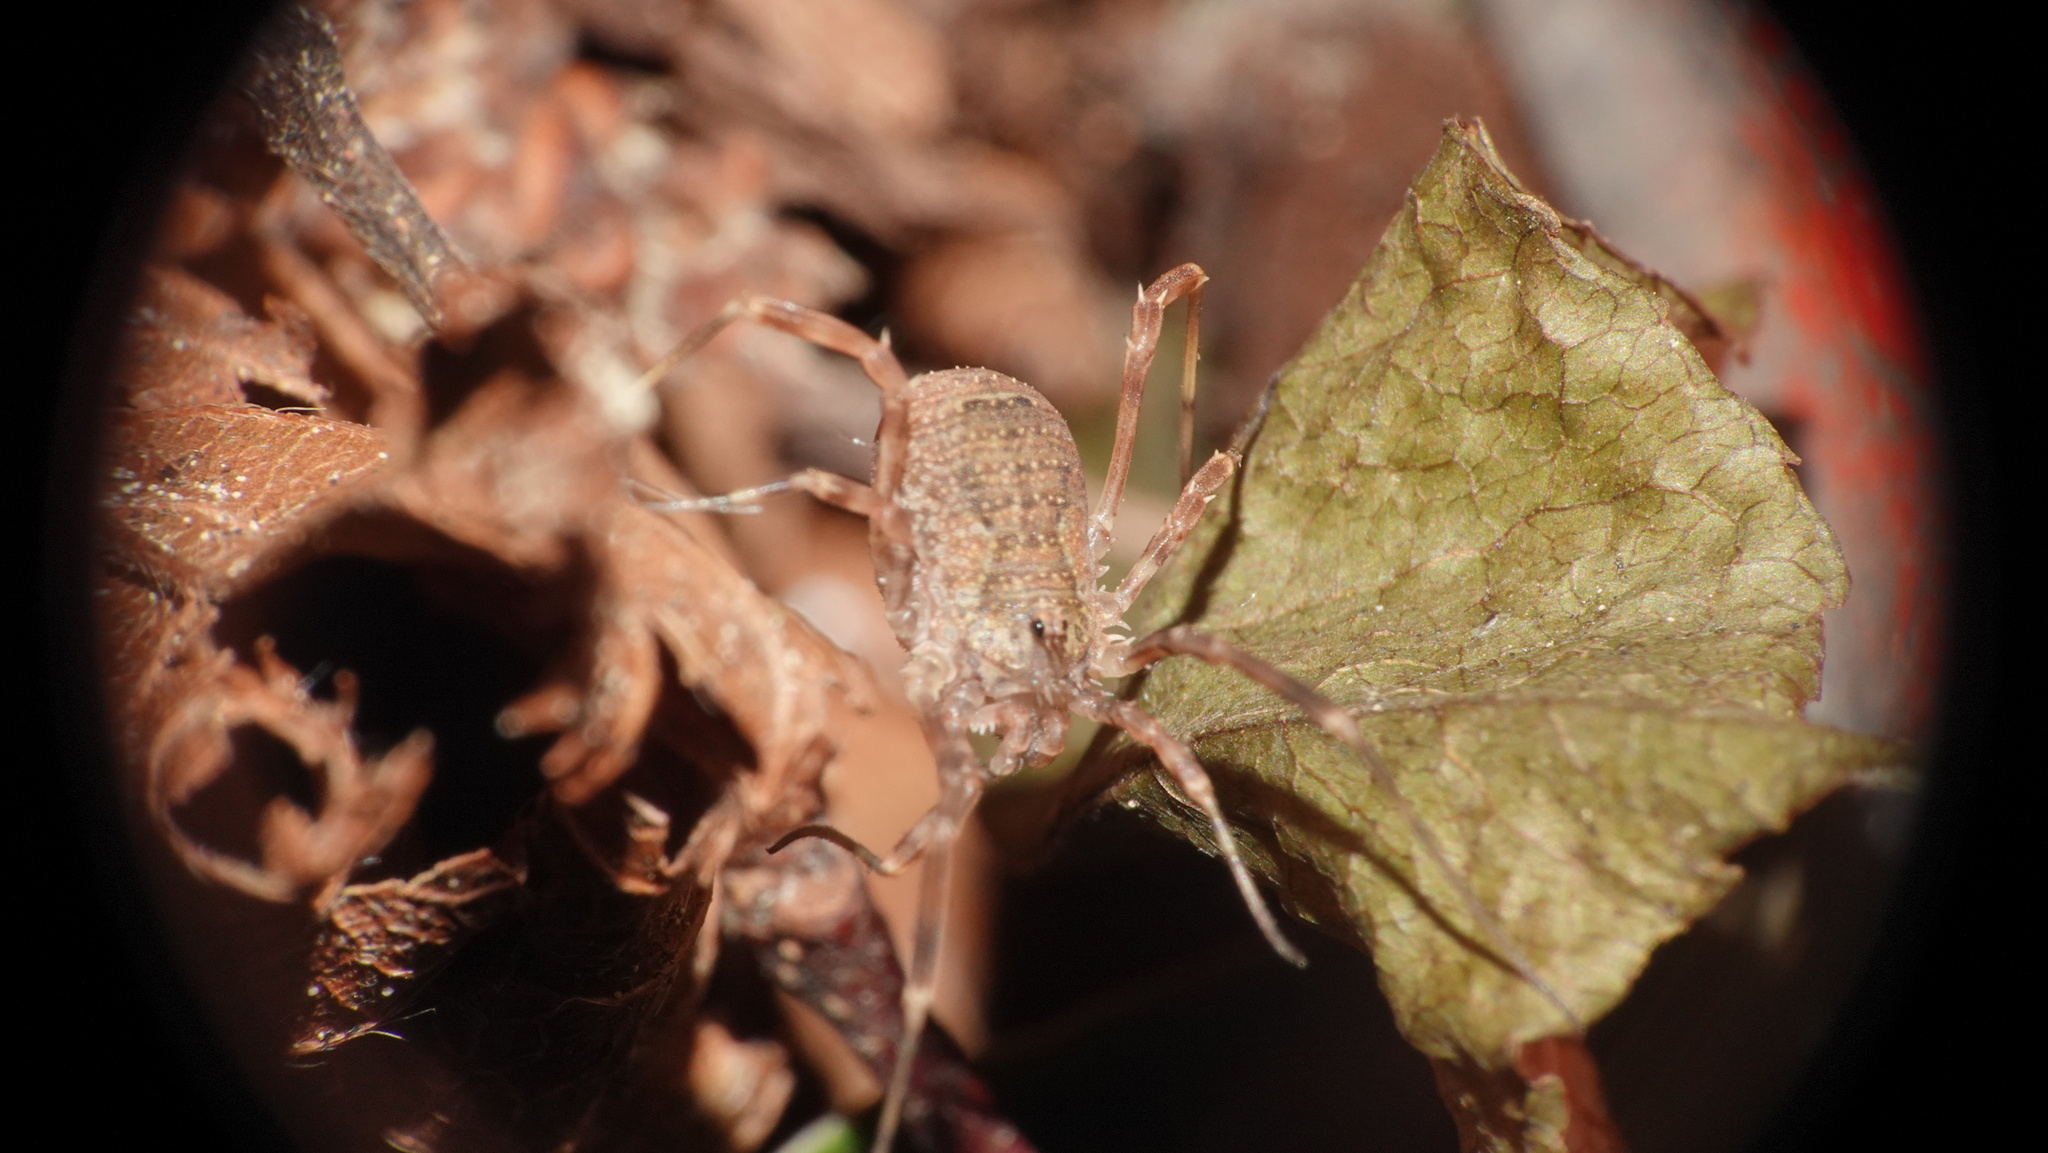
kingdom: Animalia
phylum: Arthropoda
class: Arachnida
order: Opiliones
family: Phalangiidae
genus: Odiellus
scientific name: Odiellus granulatus
